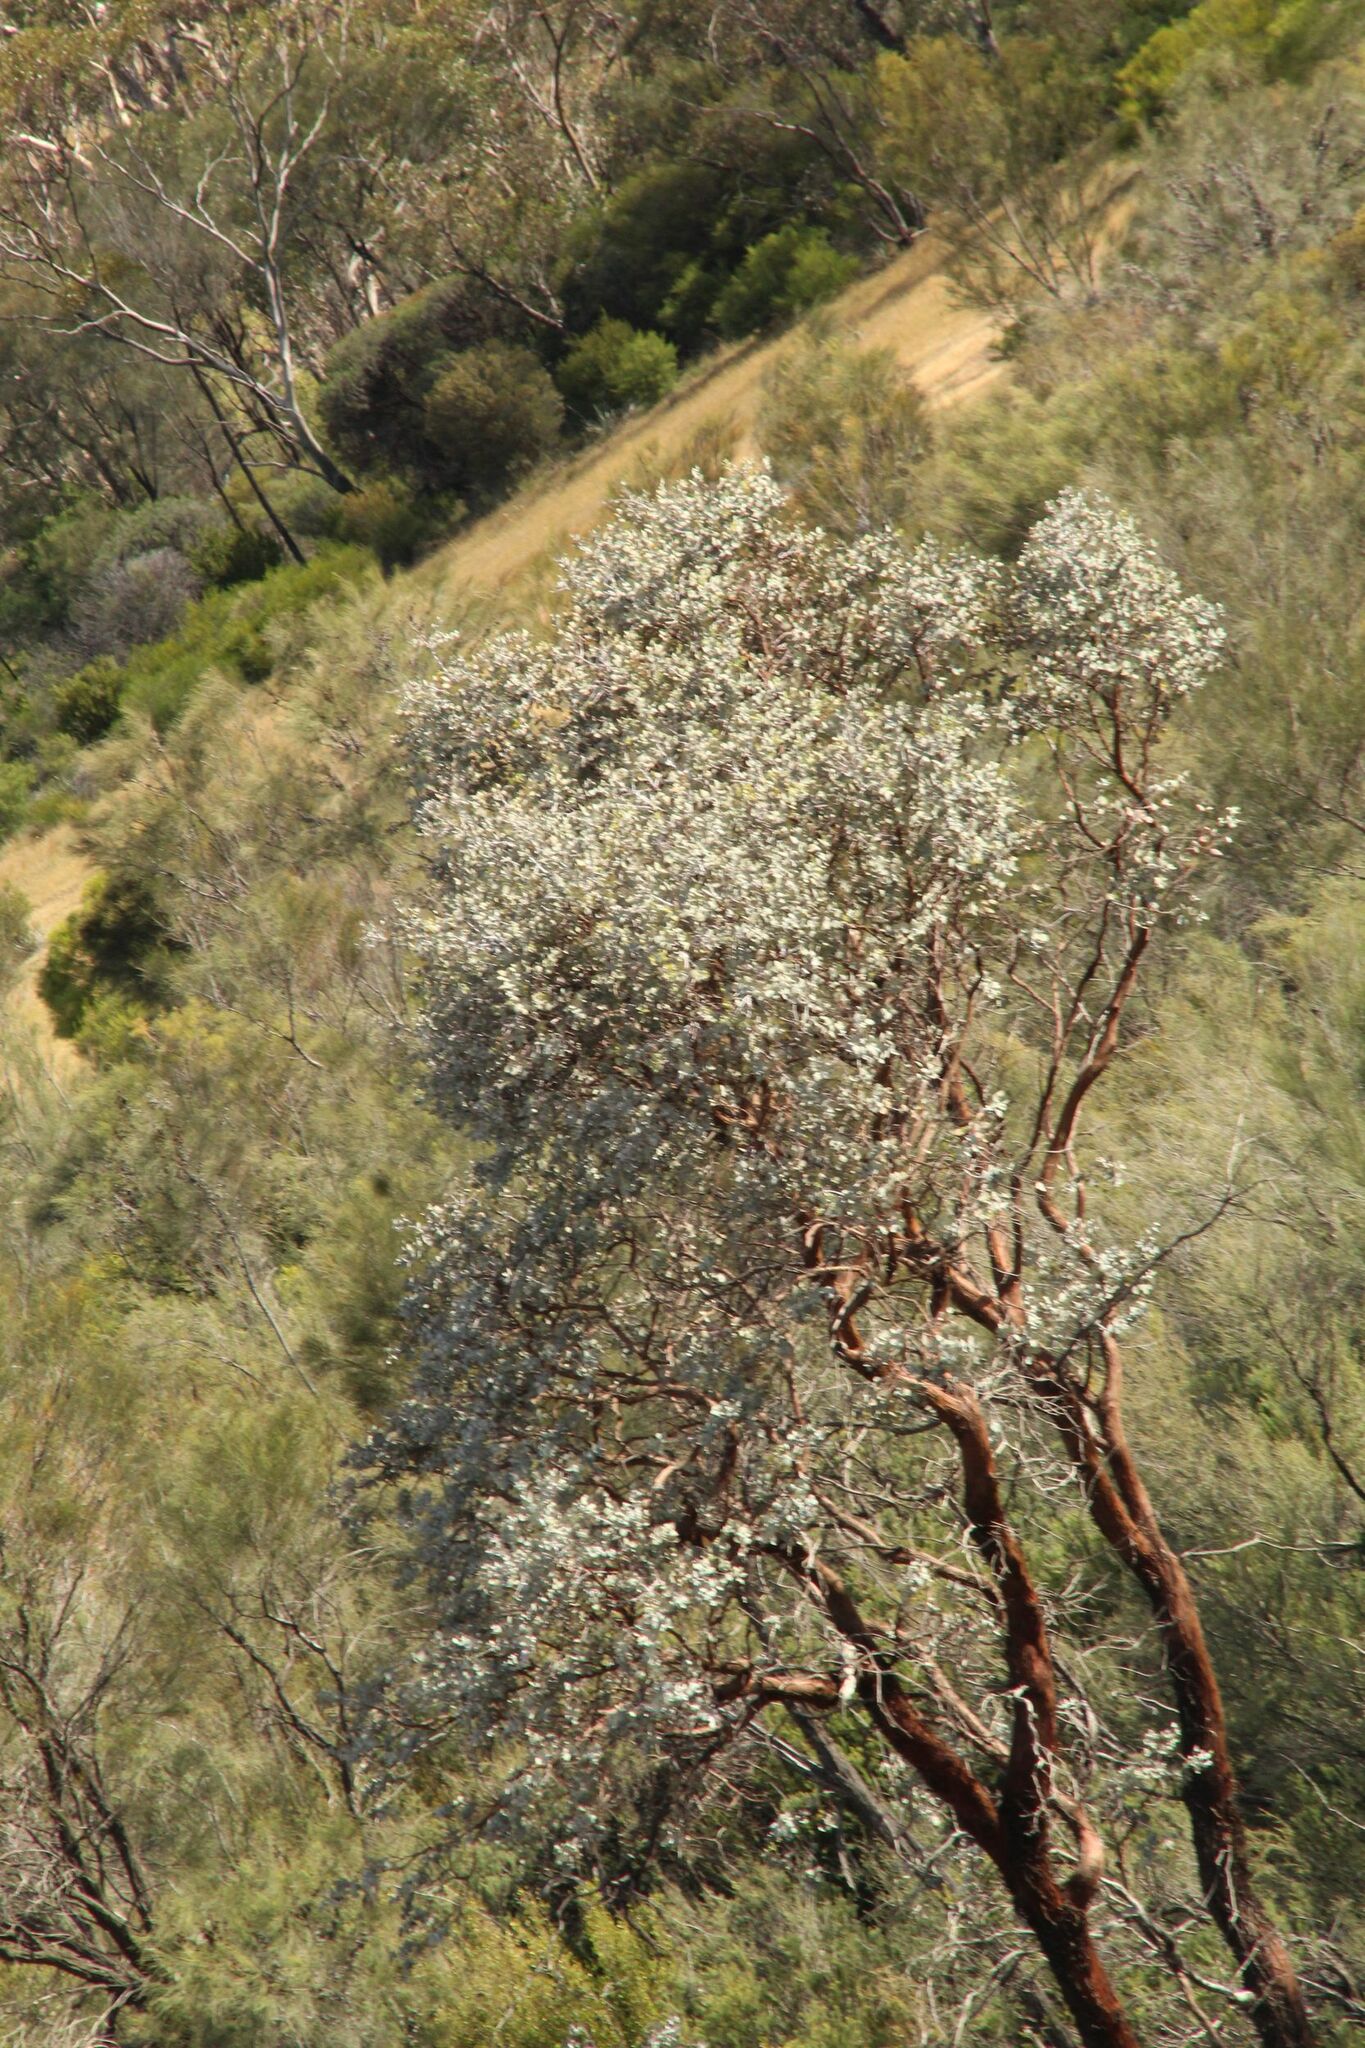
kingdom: Plantae
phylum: Tracheophyta
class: Magnoliopsida
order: Myrtales
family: Myrtaceae
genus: Eucalyptus
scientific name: Eucalyptus crucis
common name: Southern cross silver mallee
